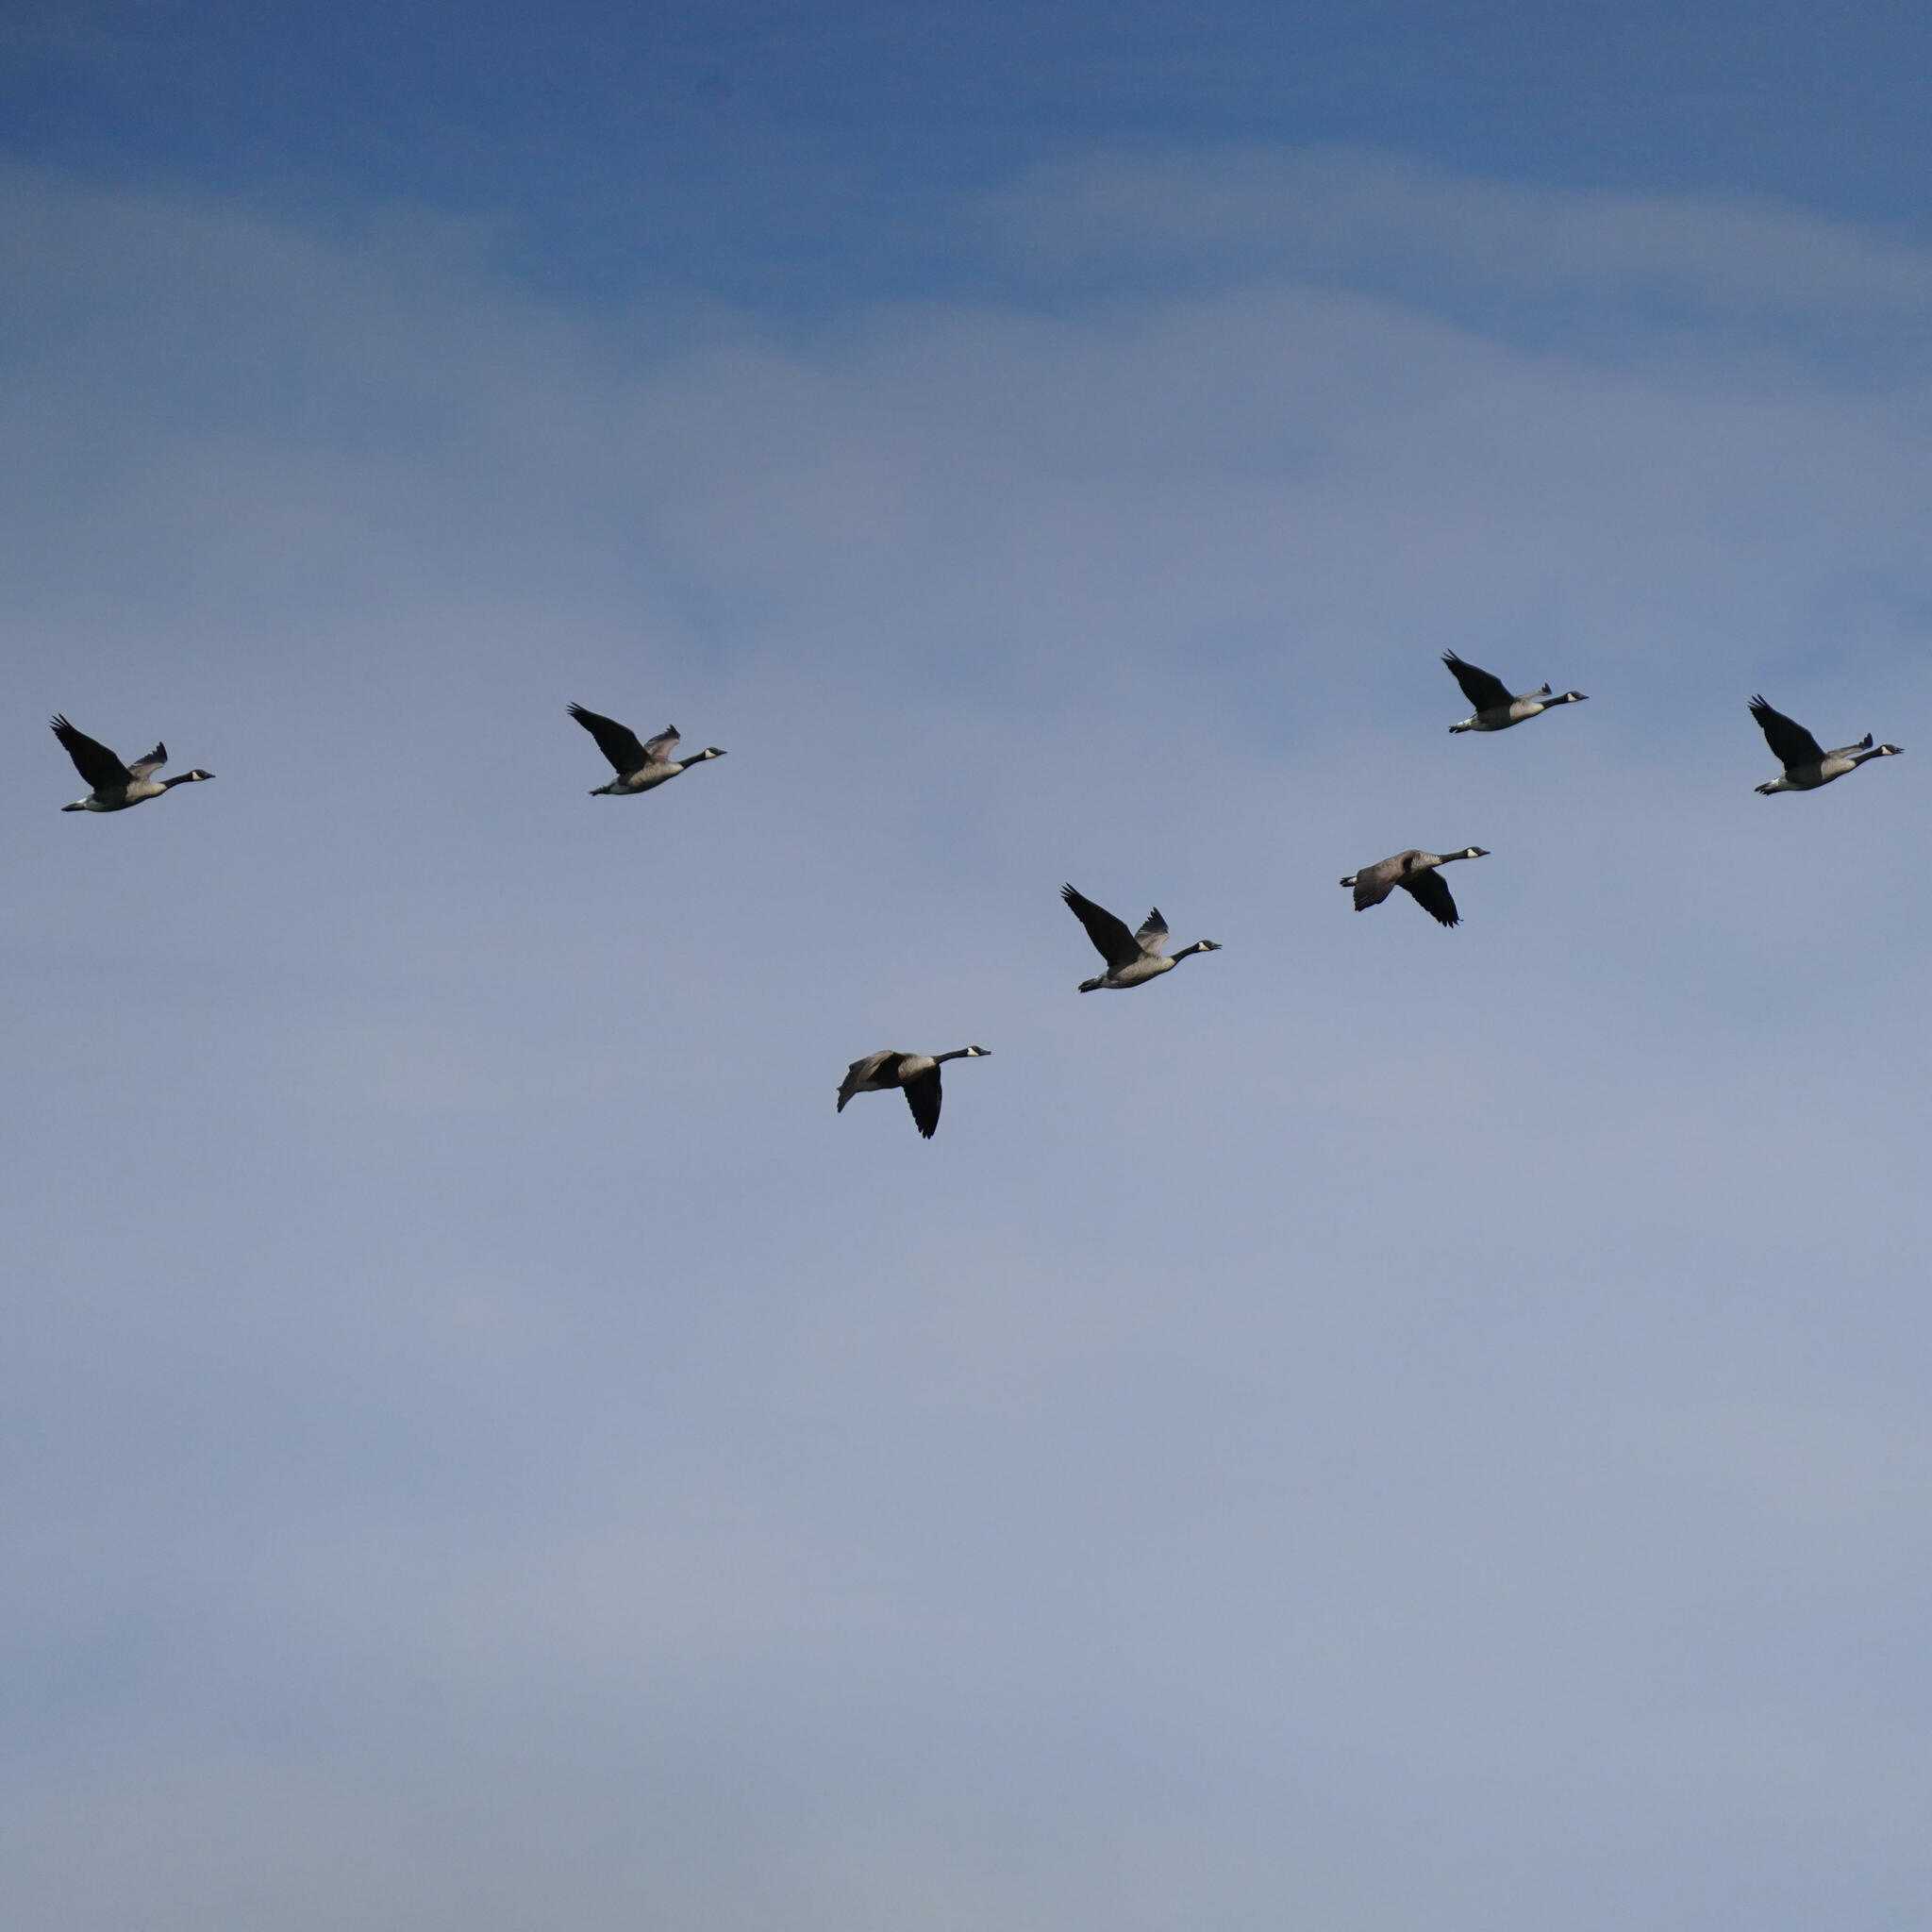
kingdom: Animalia
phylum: Chordata
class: Aves
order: Anseriformes
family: Anatidae
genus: Branta
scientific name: Branta canadensis
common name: Canada goose
